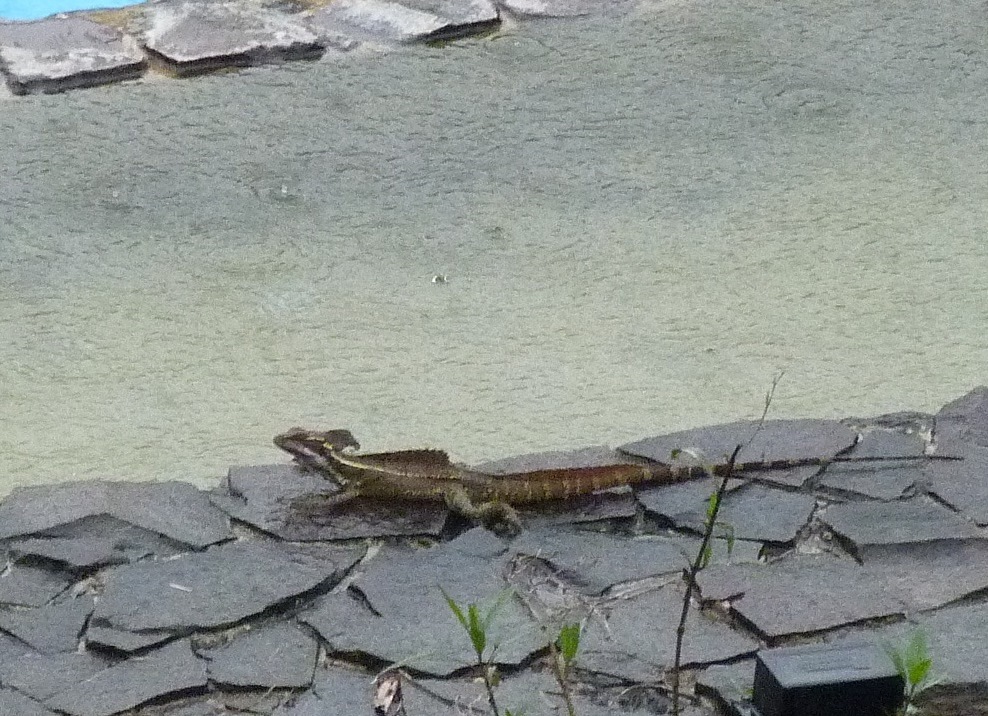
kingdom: Animalia
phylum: Chordata
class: Squamata
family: Corytophanidae
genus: Basiliscus
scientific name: Basiliscus basiliscus
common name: Common basilisk
